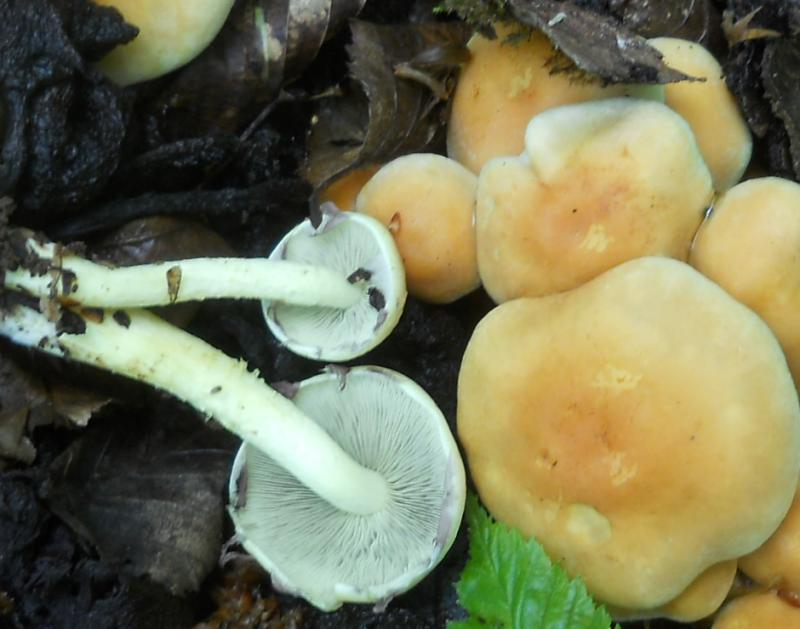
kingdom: Fungi
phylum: Basidiomycota
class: Agaricomycetes
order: Agaricales
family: Strophariaceae
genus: Hypholoma
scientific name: Hypholoma fasciculare
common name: Sulphur tuft
